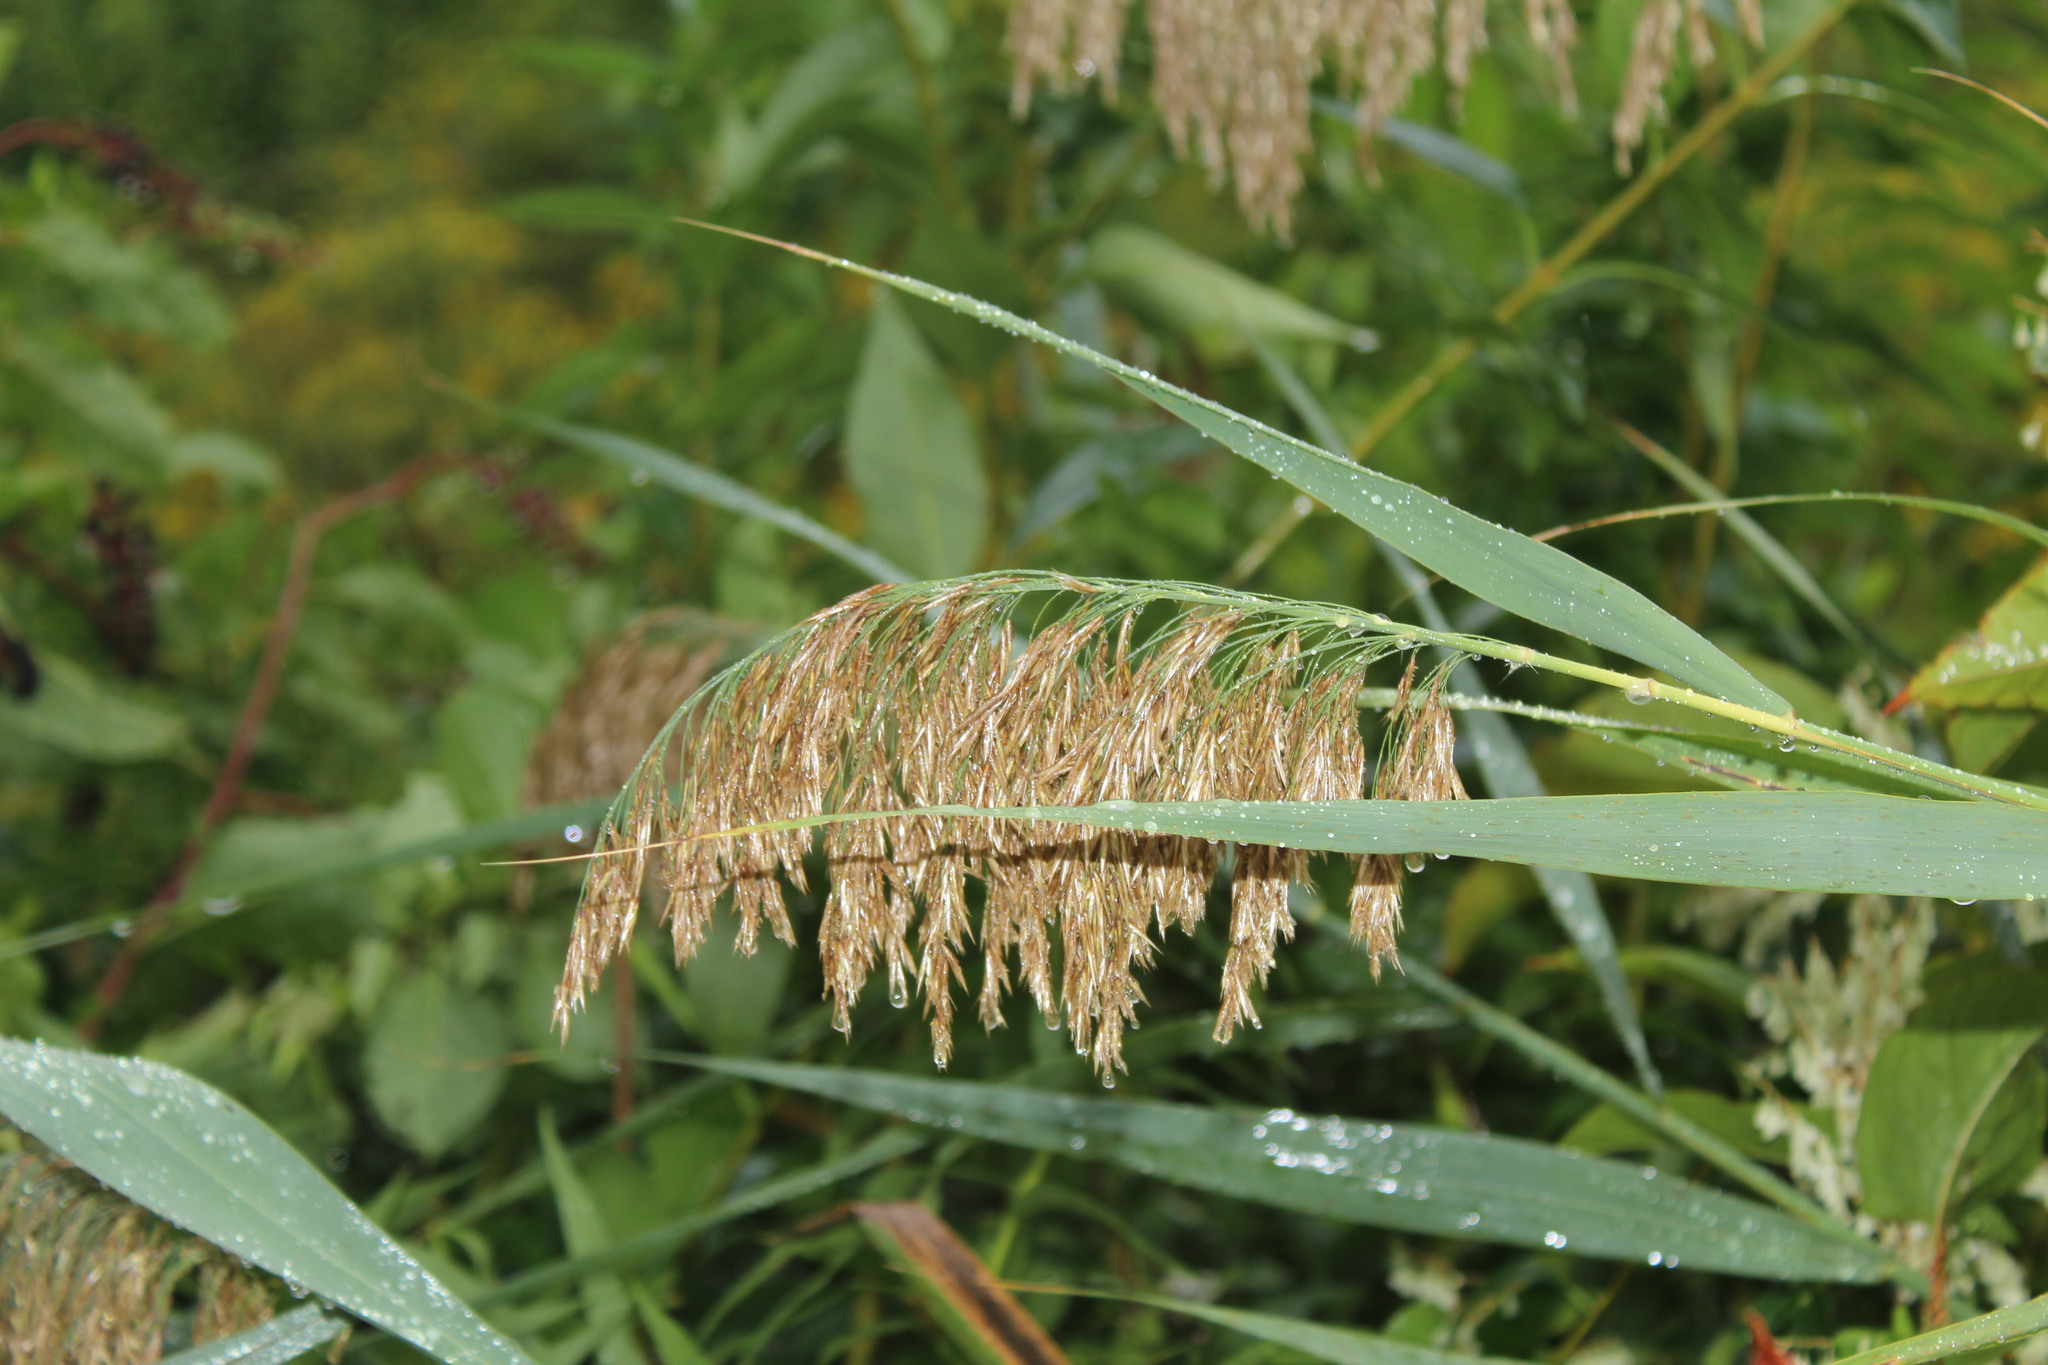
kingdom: Plantae
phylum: Tracheophyta
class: Liliopsida
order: Poales
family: Poaceae
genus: Phragmites
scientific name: Phragmites australis
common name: Common reed
